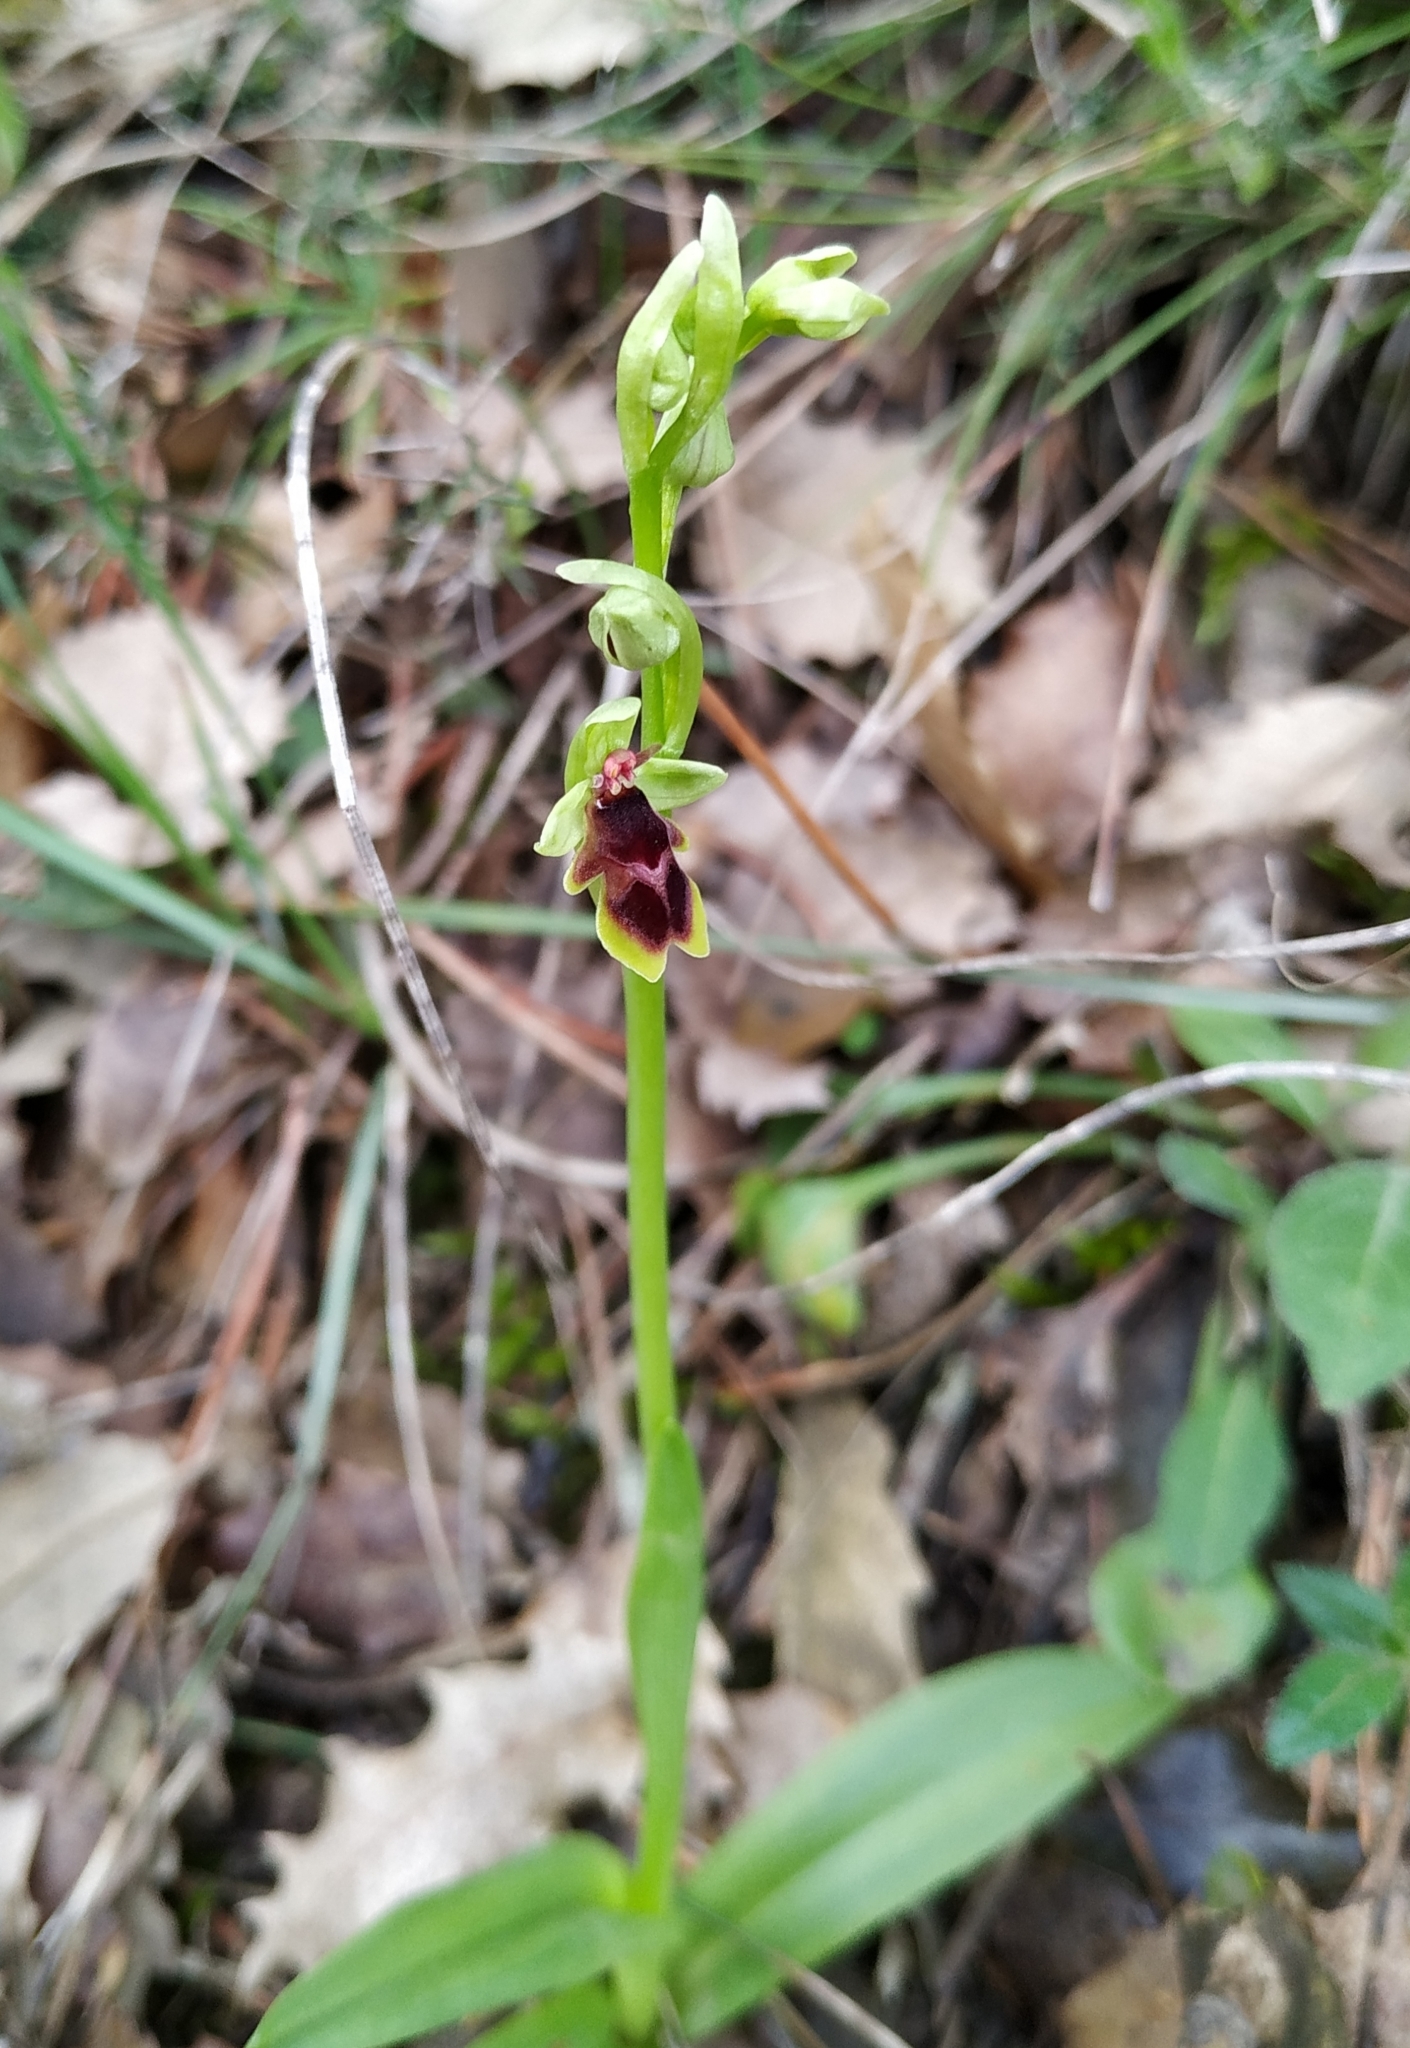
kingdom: Plantae
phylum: Tracheophyta
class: Liliopsida
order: Asparagales
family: Orchidaceae
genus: Ophrys
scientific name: Ophrys insectifera
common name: Fly orchid
